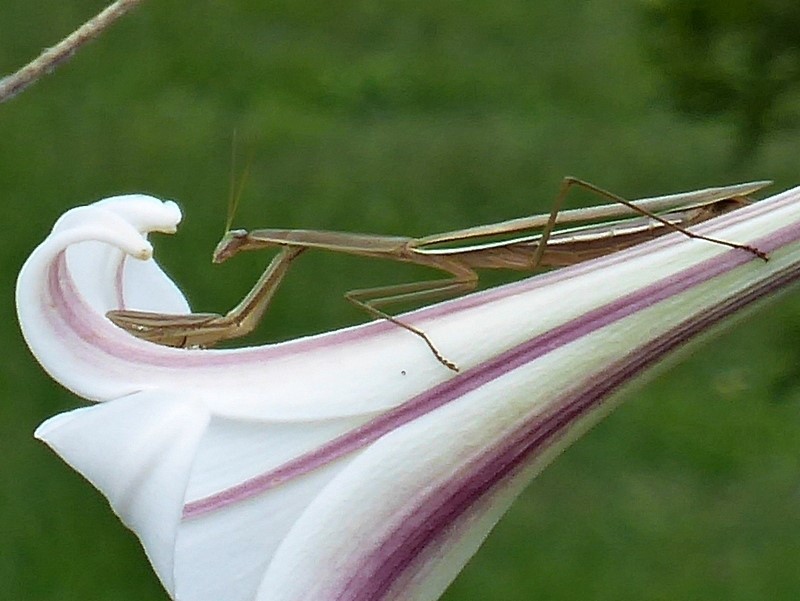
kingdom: Animalia
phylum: Arthropoda
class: Insecta
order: Mantodea
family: Mantidae
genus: Tenodera
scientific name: Tenodera australasiae
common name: Purple-winged mantis
